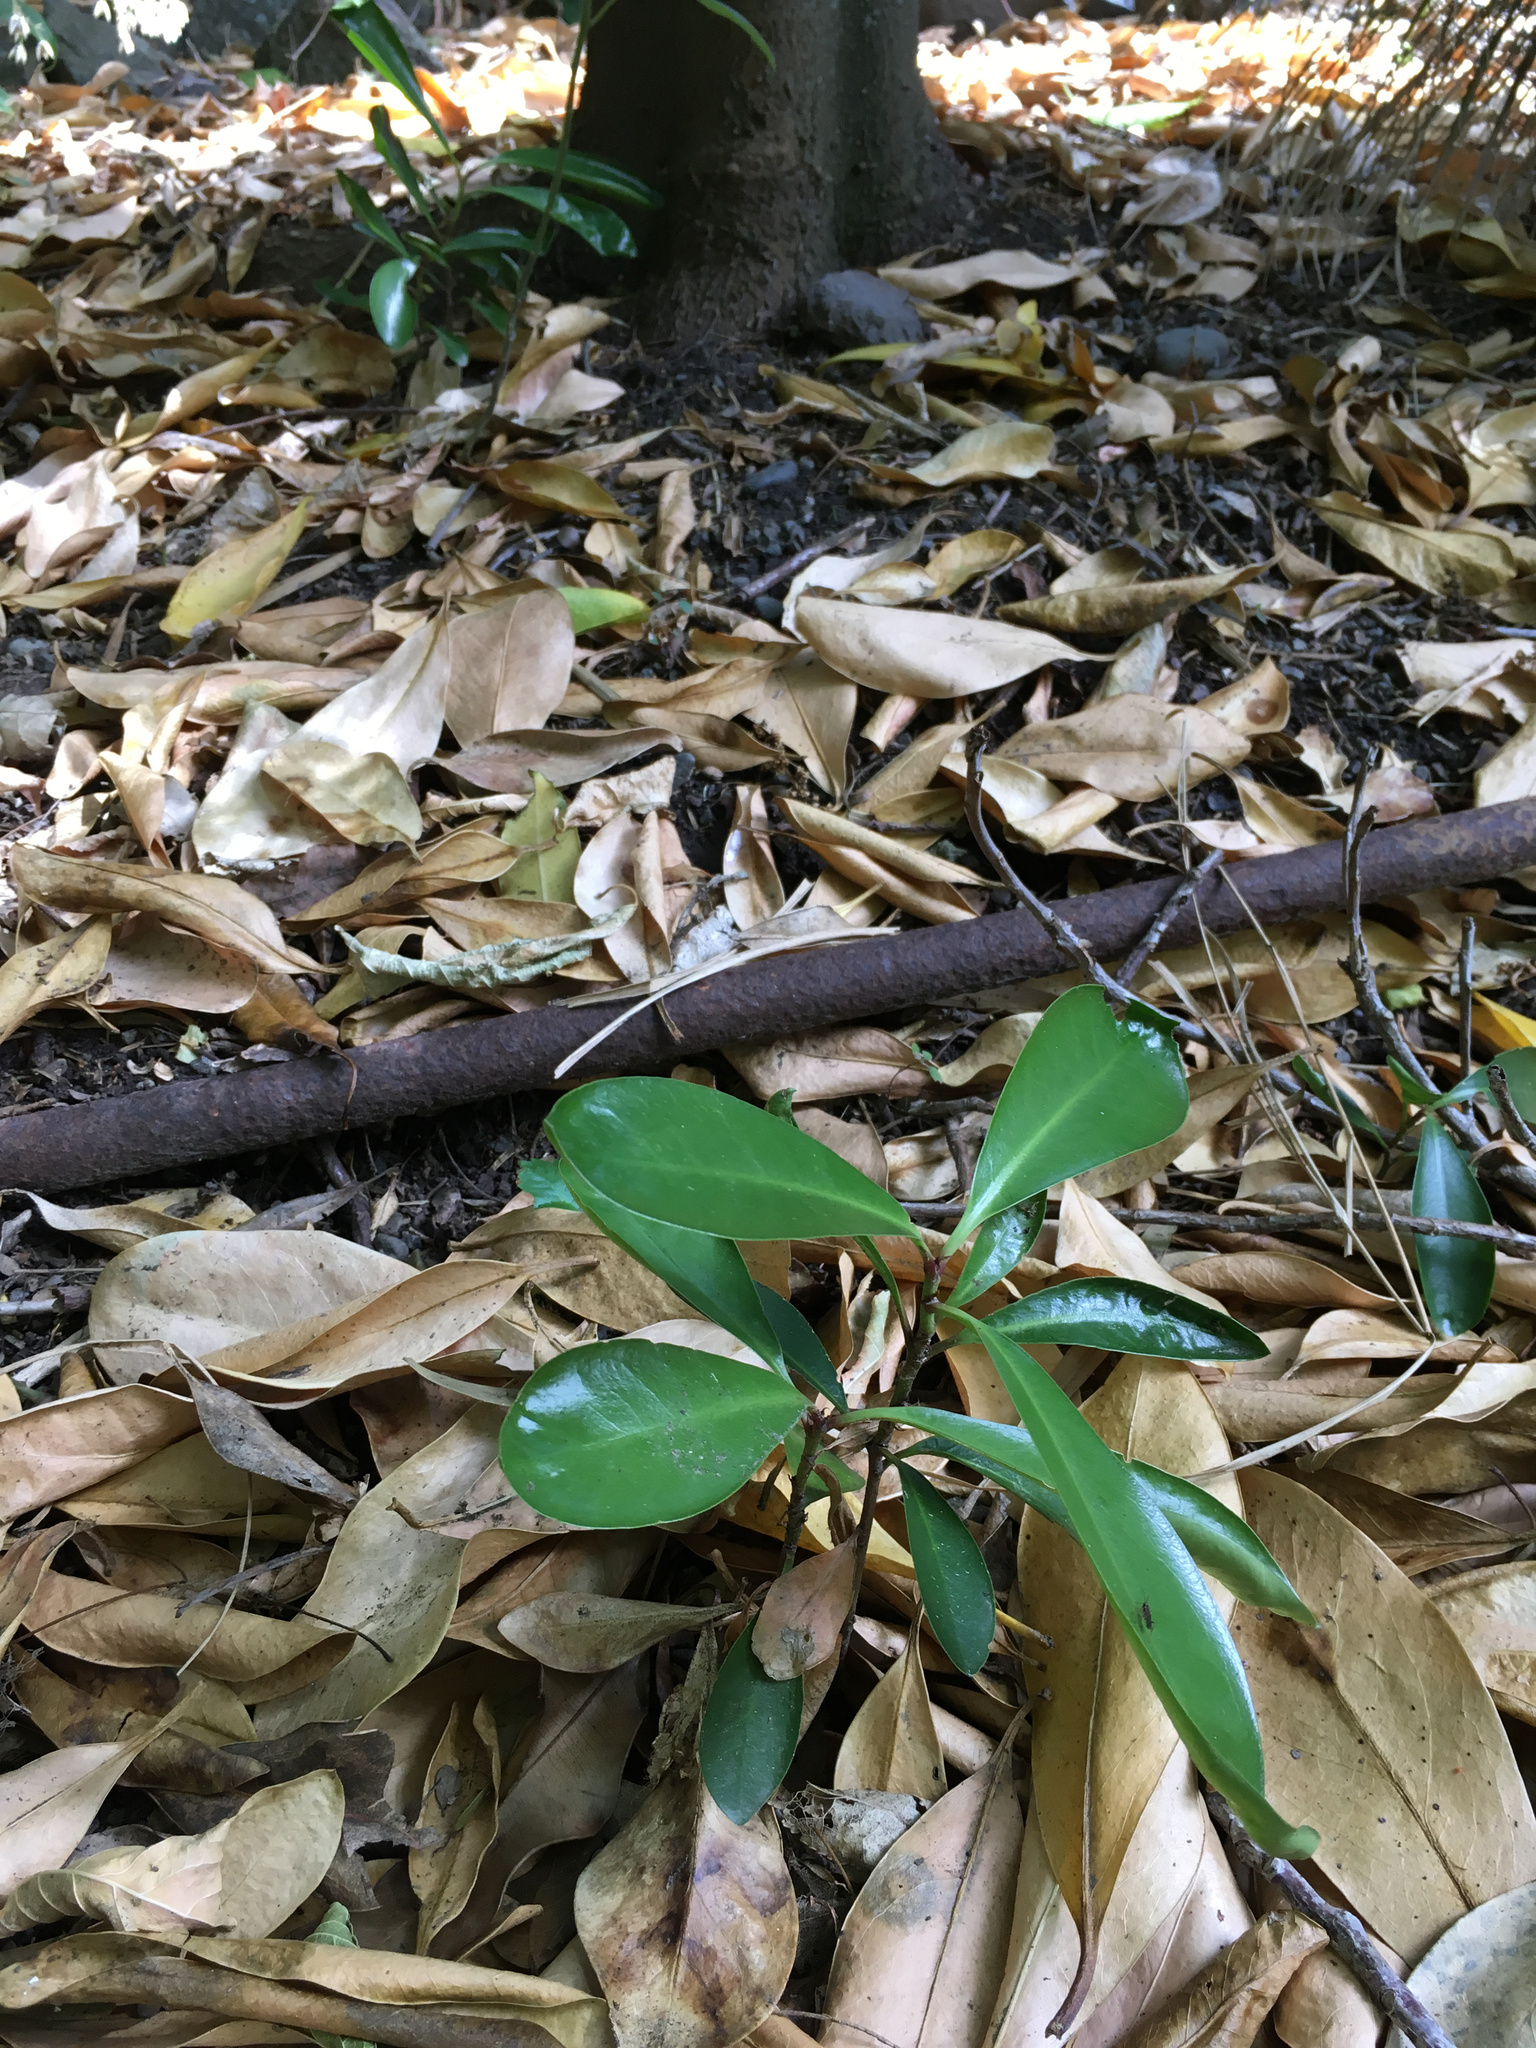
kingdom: Plantae
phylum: Tracheophyta
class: Magnoliopsida
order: Cucurbitales
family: Corynocarpaceae
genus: Corynocarpus
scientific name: Corynocarpus laevigatus
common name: New zealand laurel
